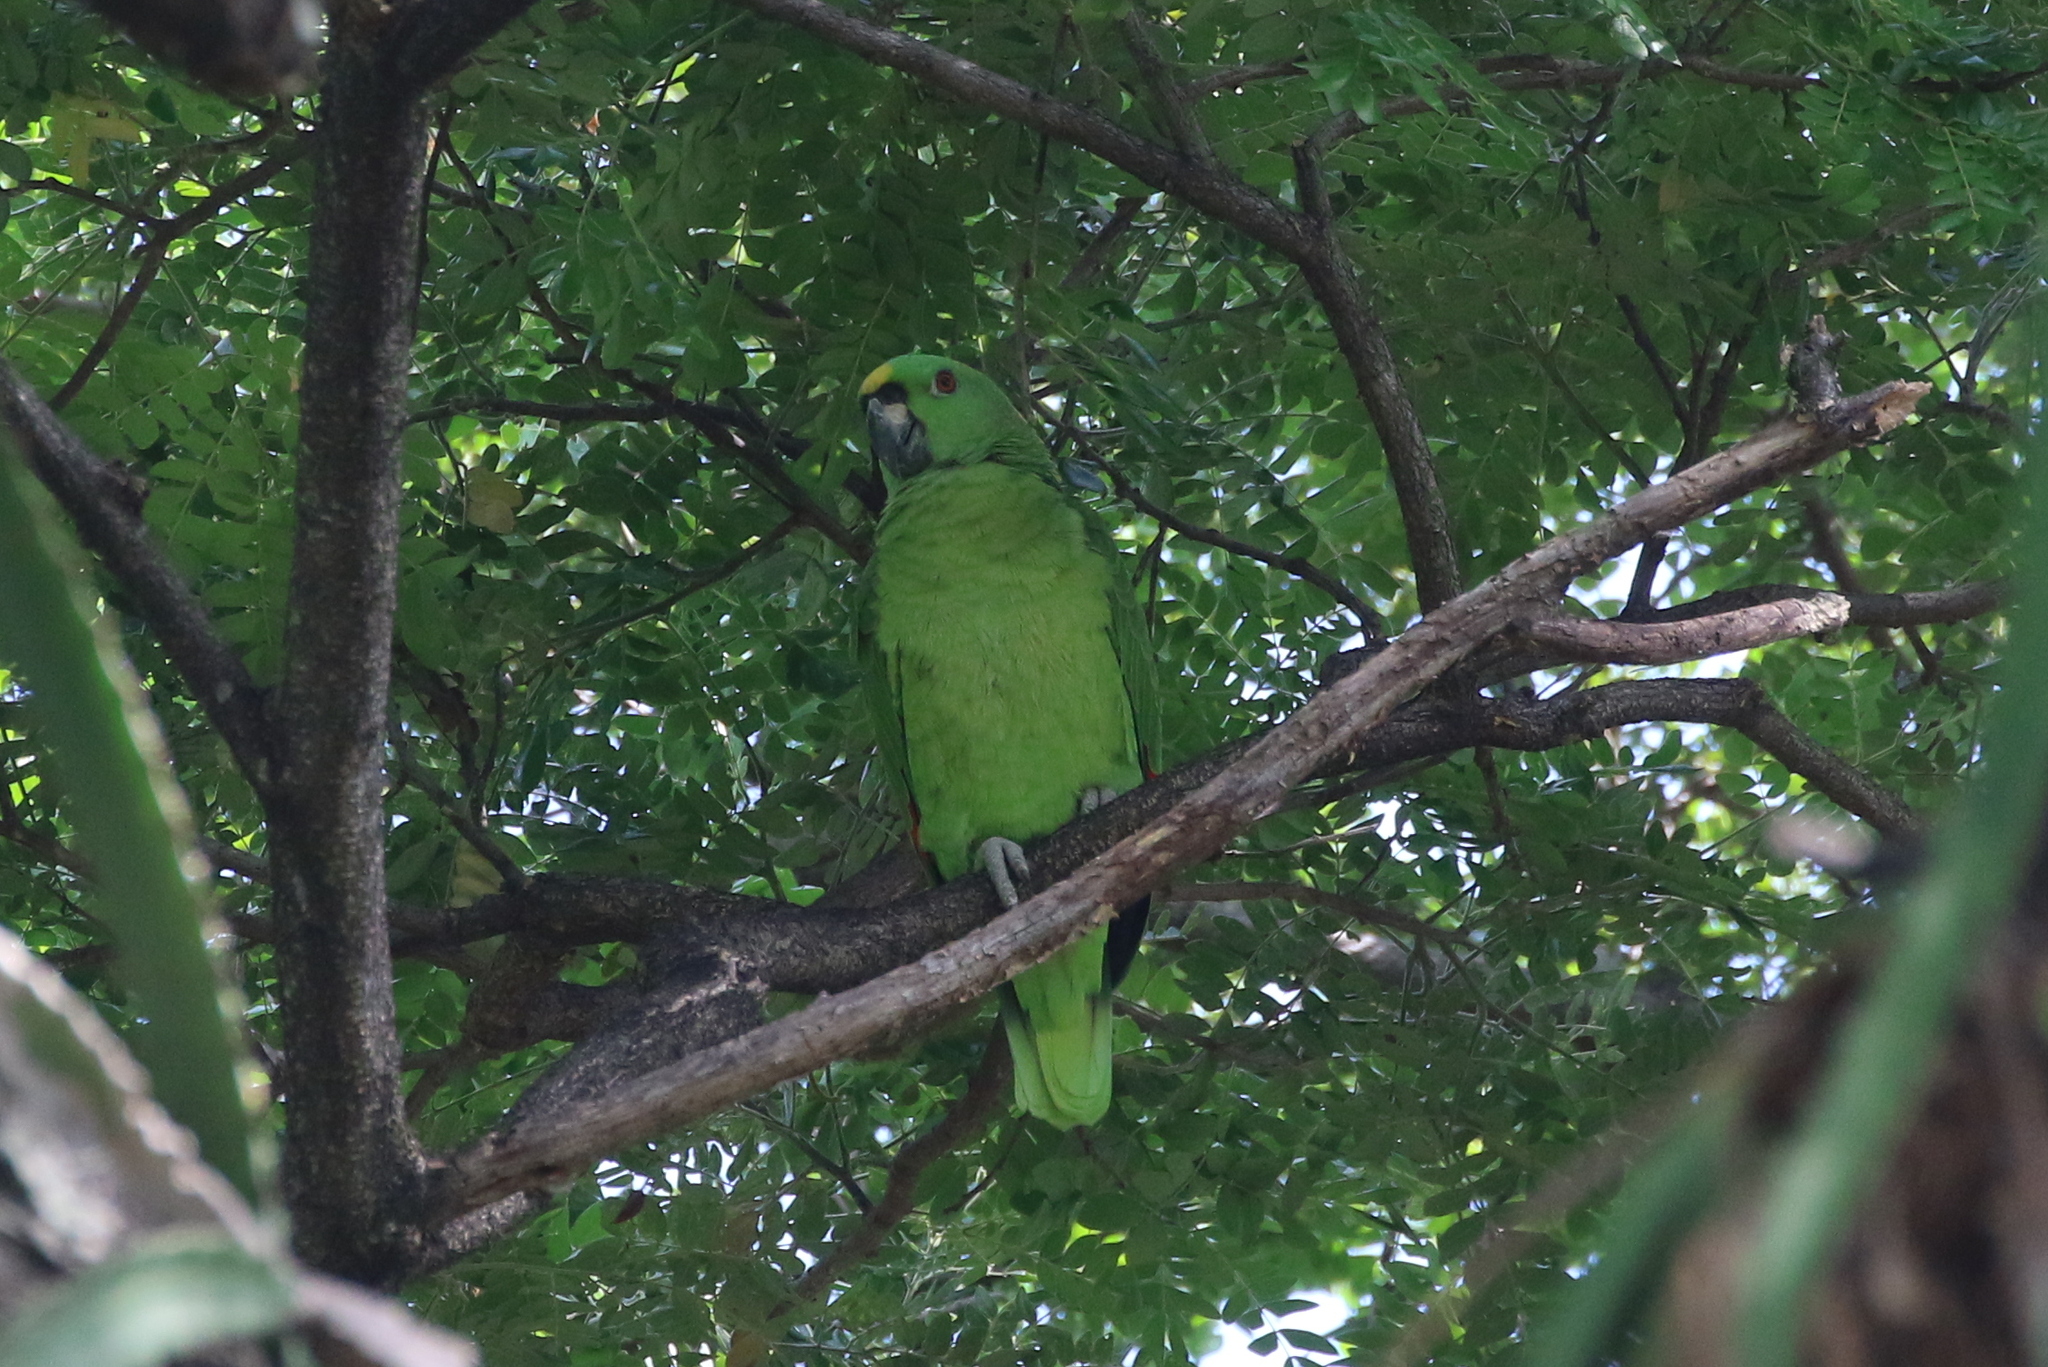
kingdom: Animalia
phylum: Chordata
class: Aves
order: Psittaciformes
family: Psittacidae
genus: Amazona
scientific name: Amazona auropalliata
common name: Yellow-naped amazon
